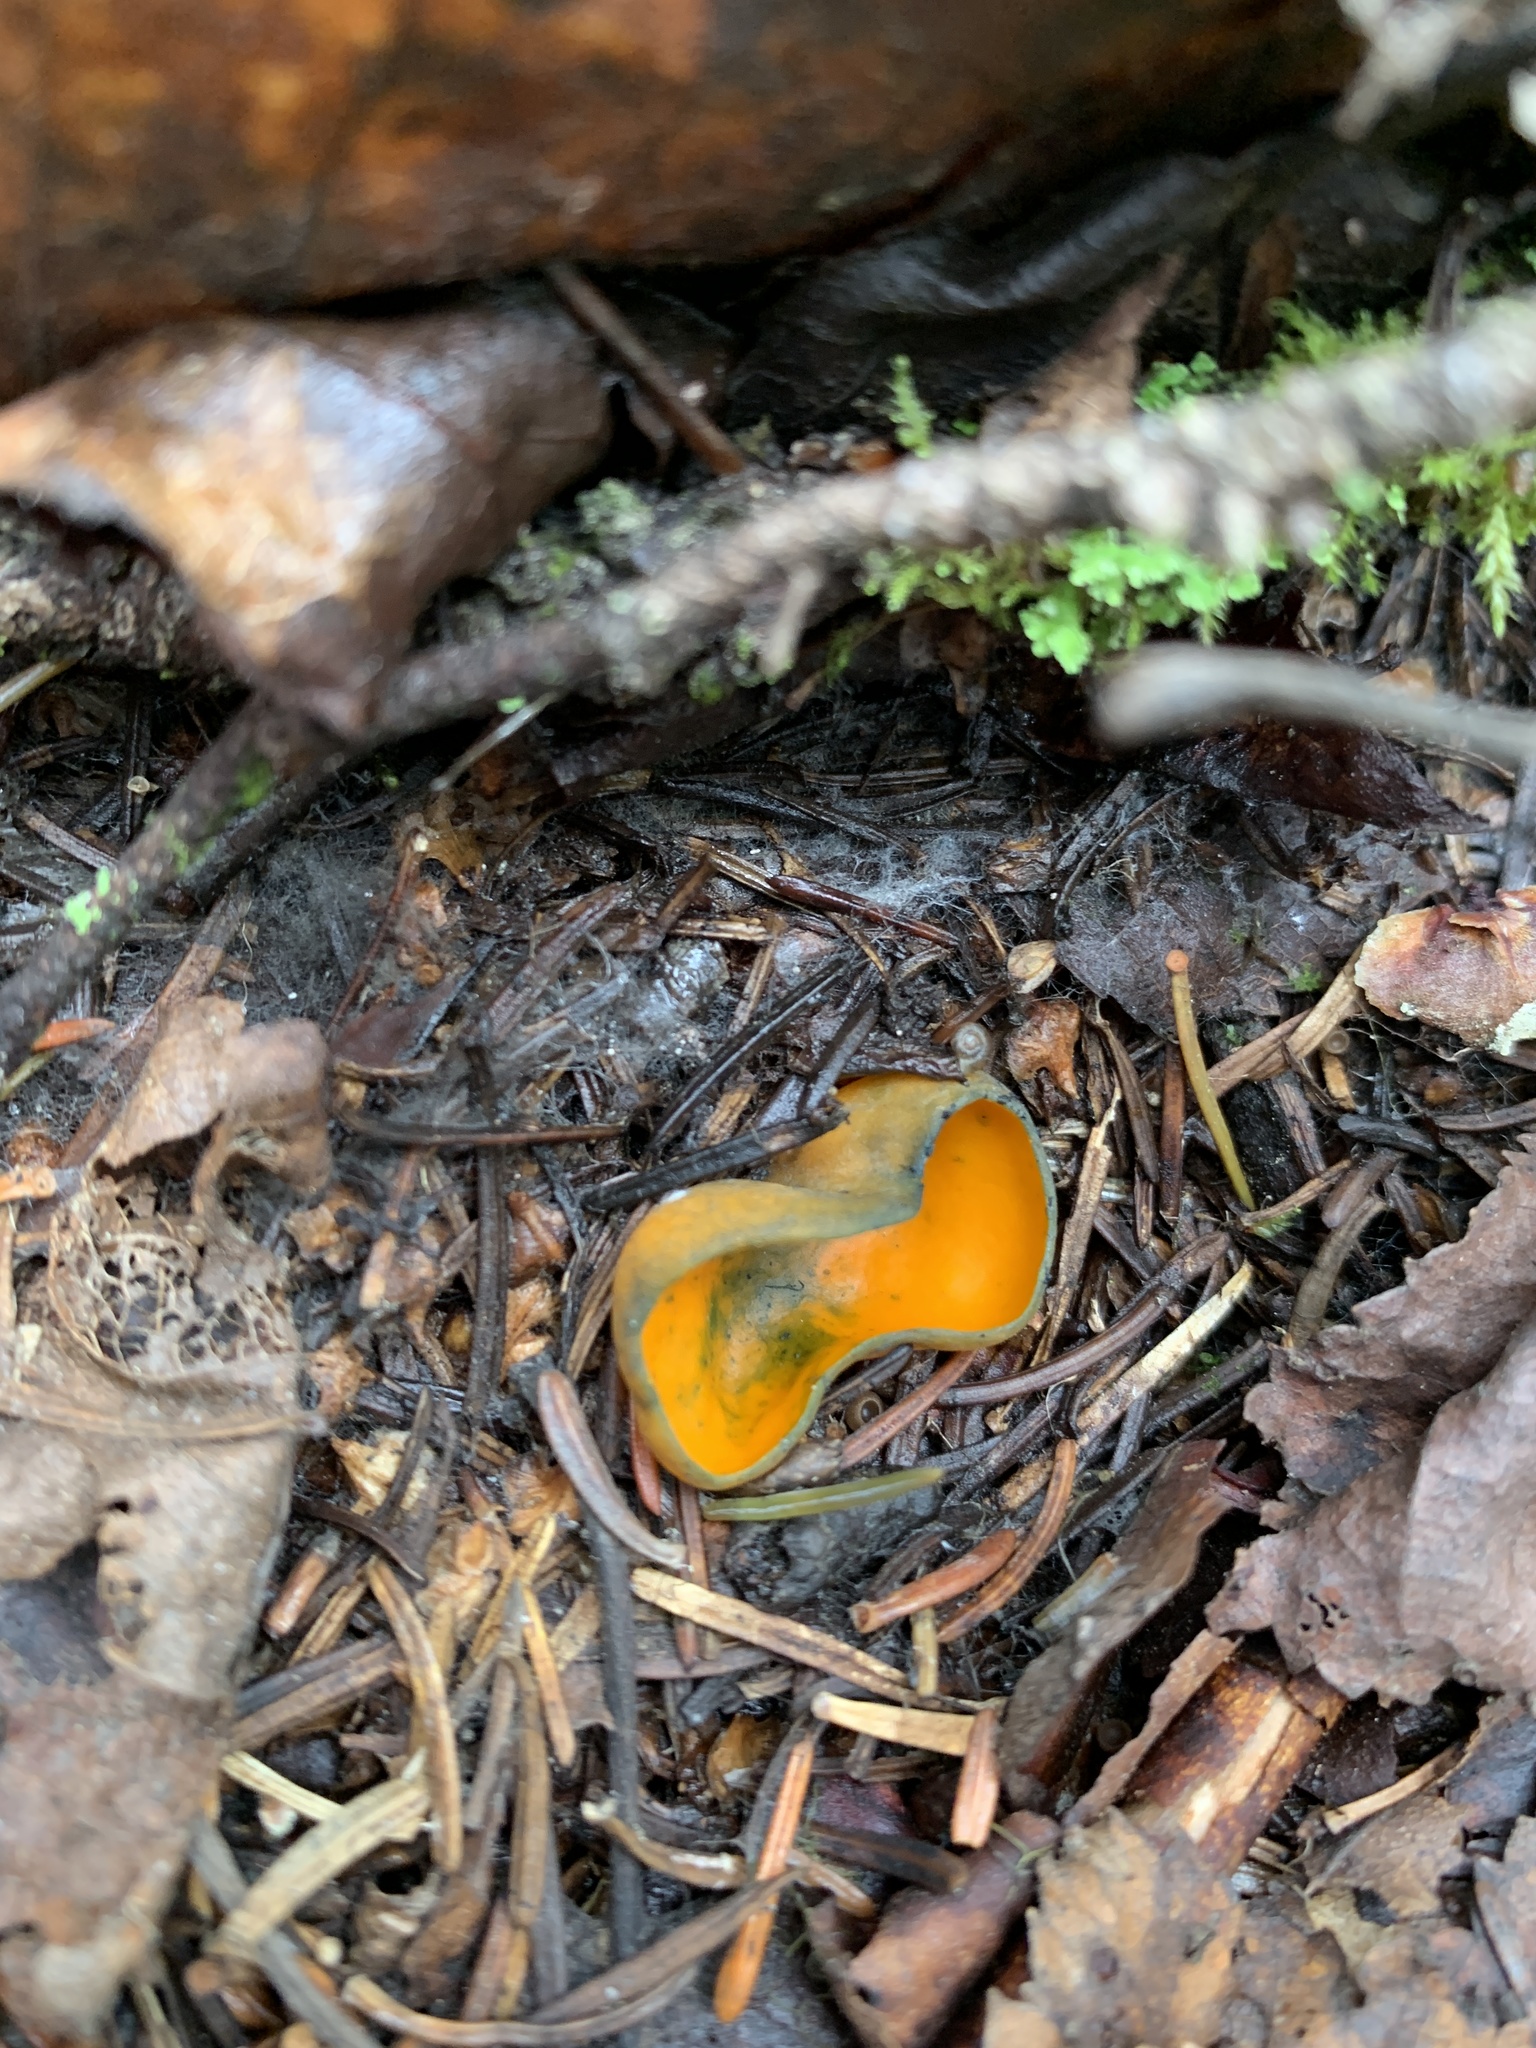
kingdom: Fungi
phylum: Ascomycota
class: Pezizomycetes
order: Pezizales
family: Caloscyphaceae
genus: Caloscypha
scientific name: Caloscypha fulgens
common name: Golden cup
